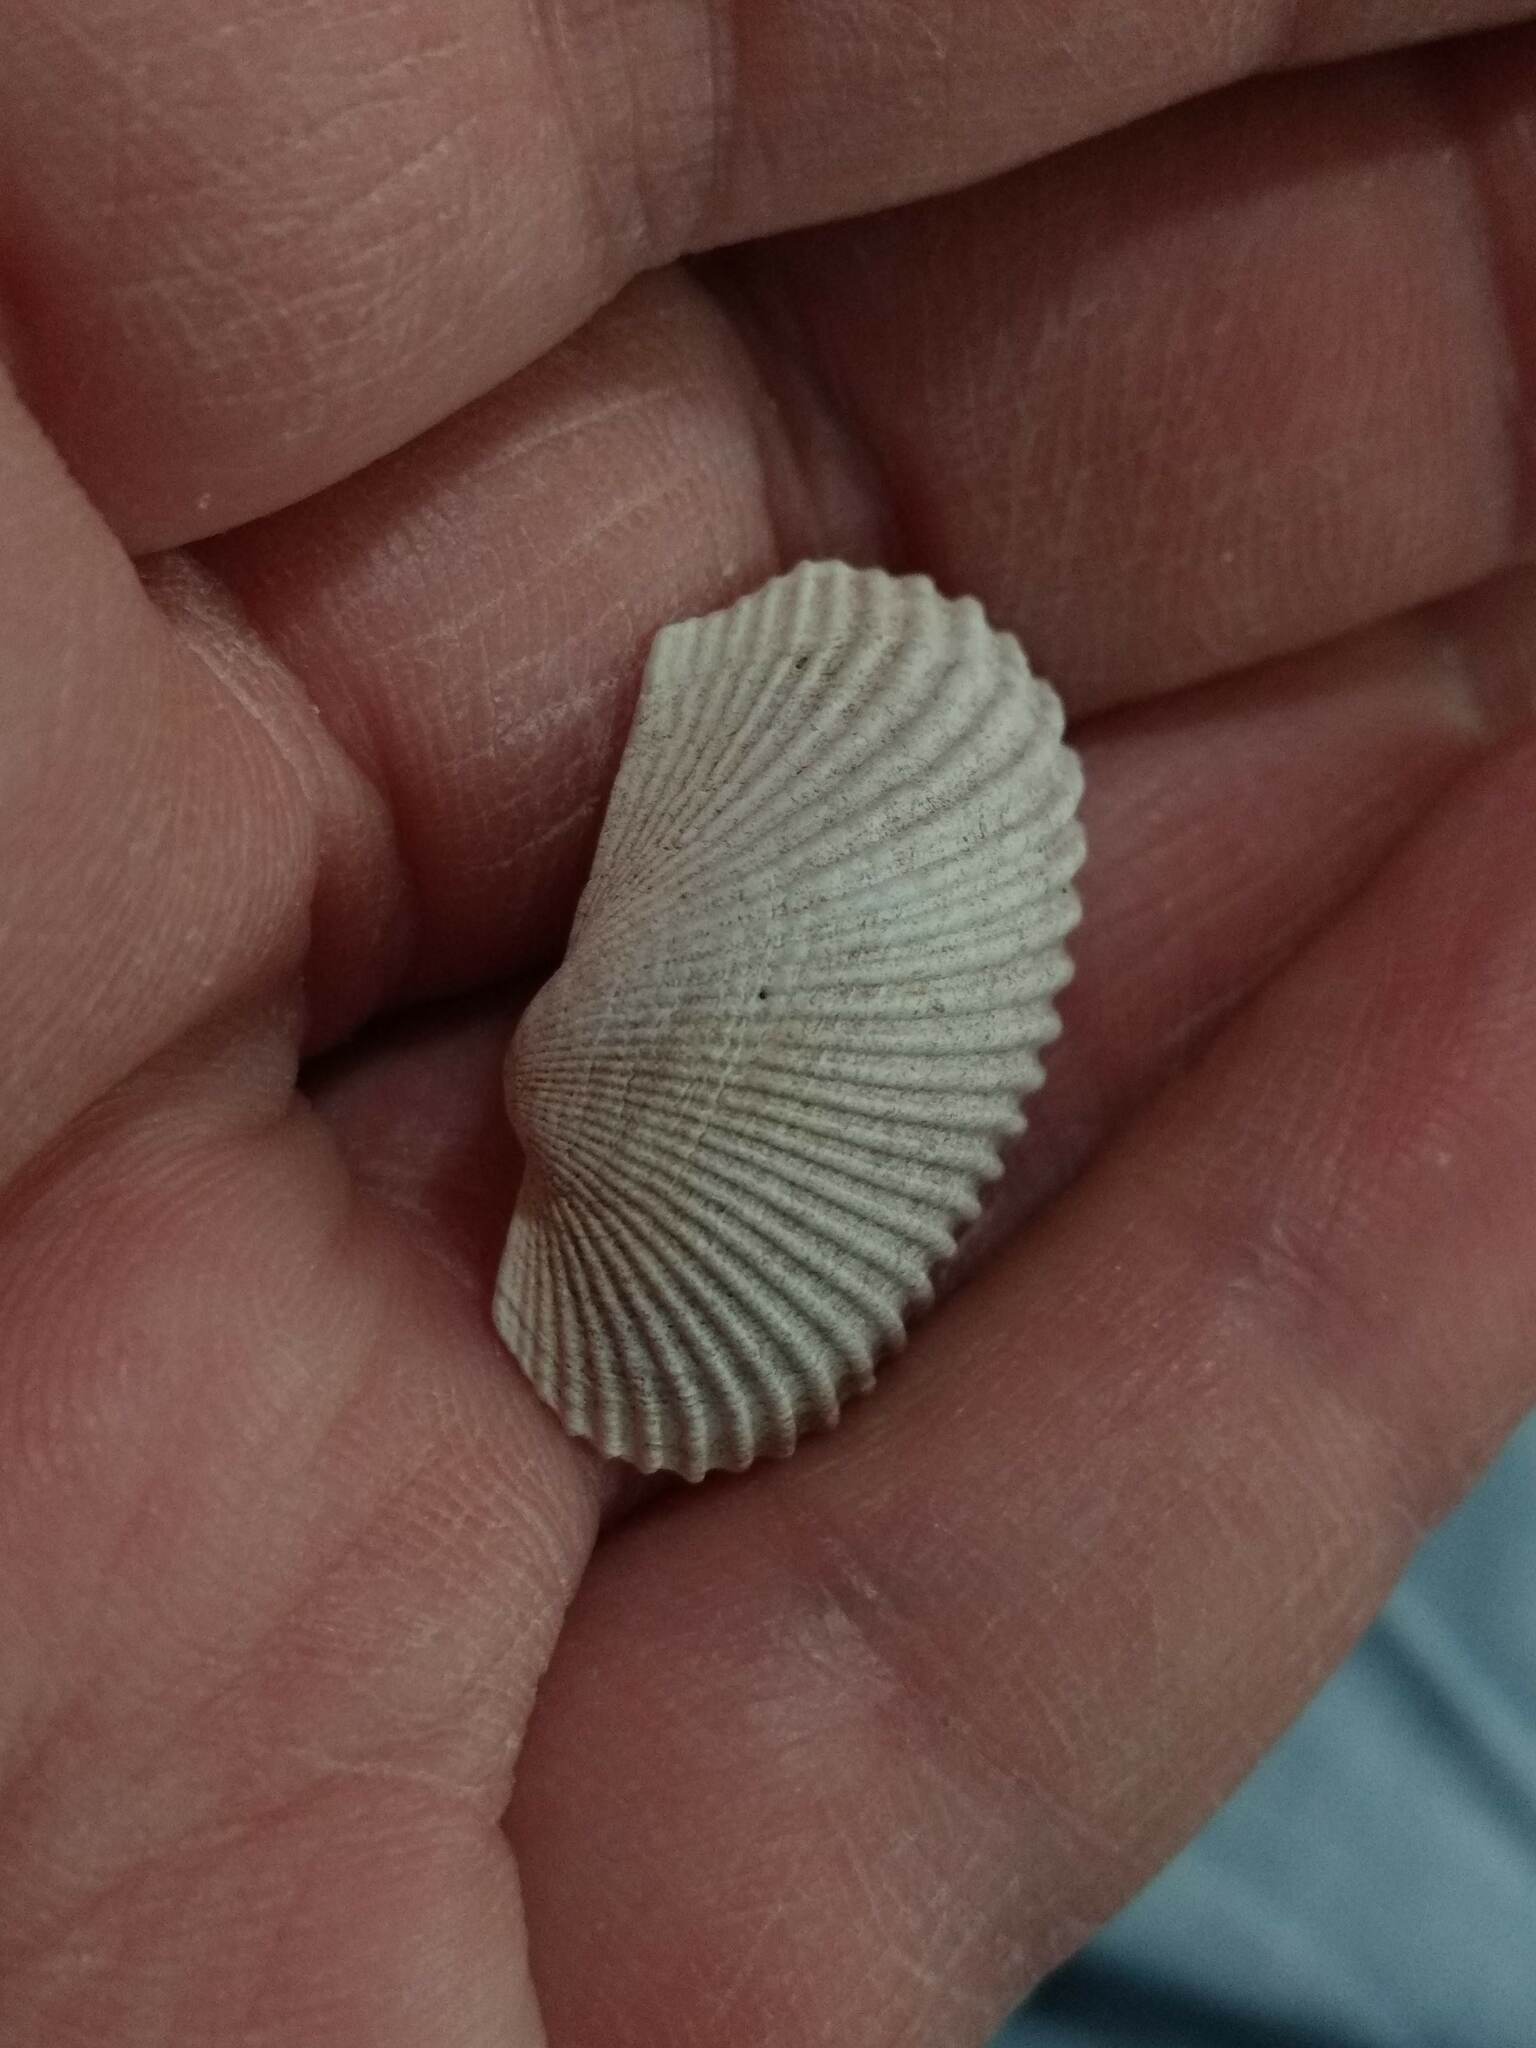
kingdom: Animalia
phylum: Mollusca
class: Bivalvia
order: Arcida
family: Arcidae
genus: Anadara
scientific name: Anadara transversa
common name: Transverse ark
